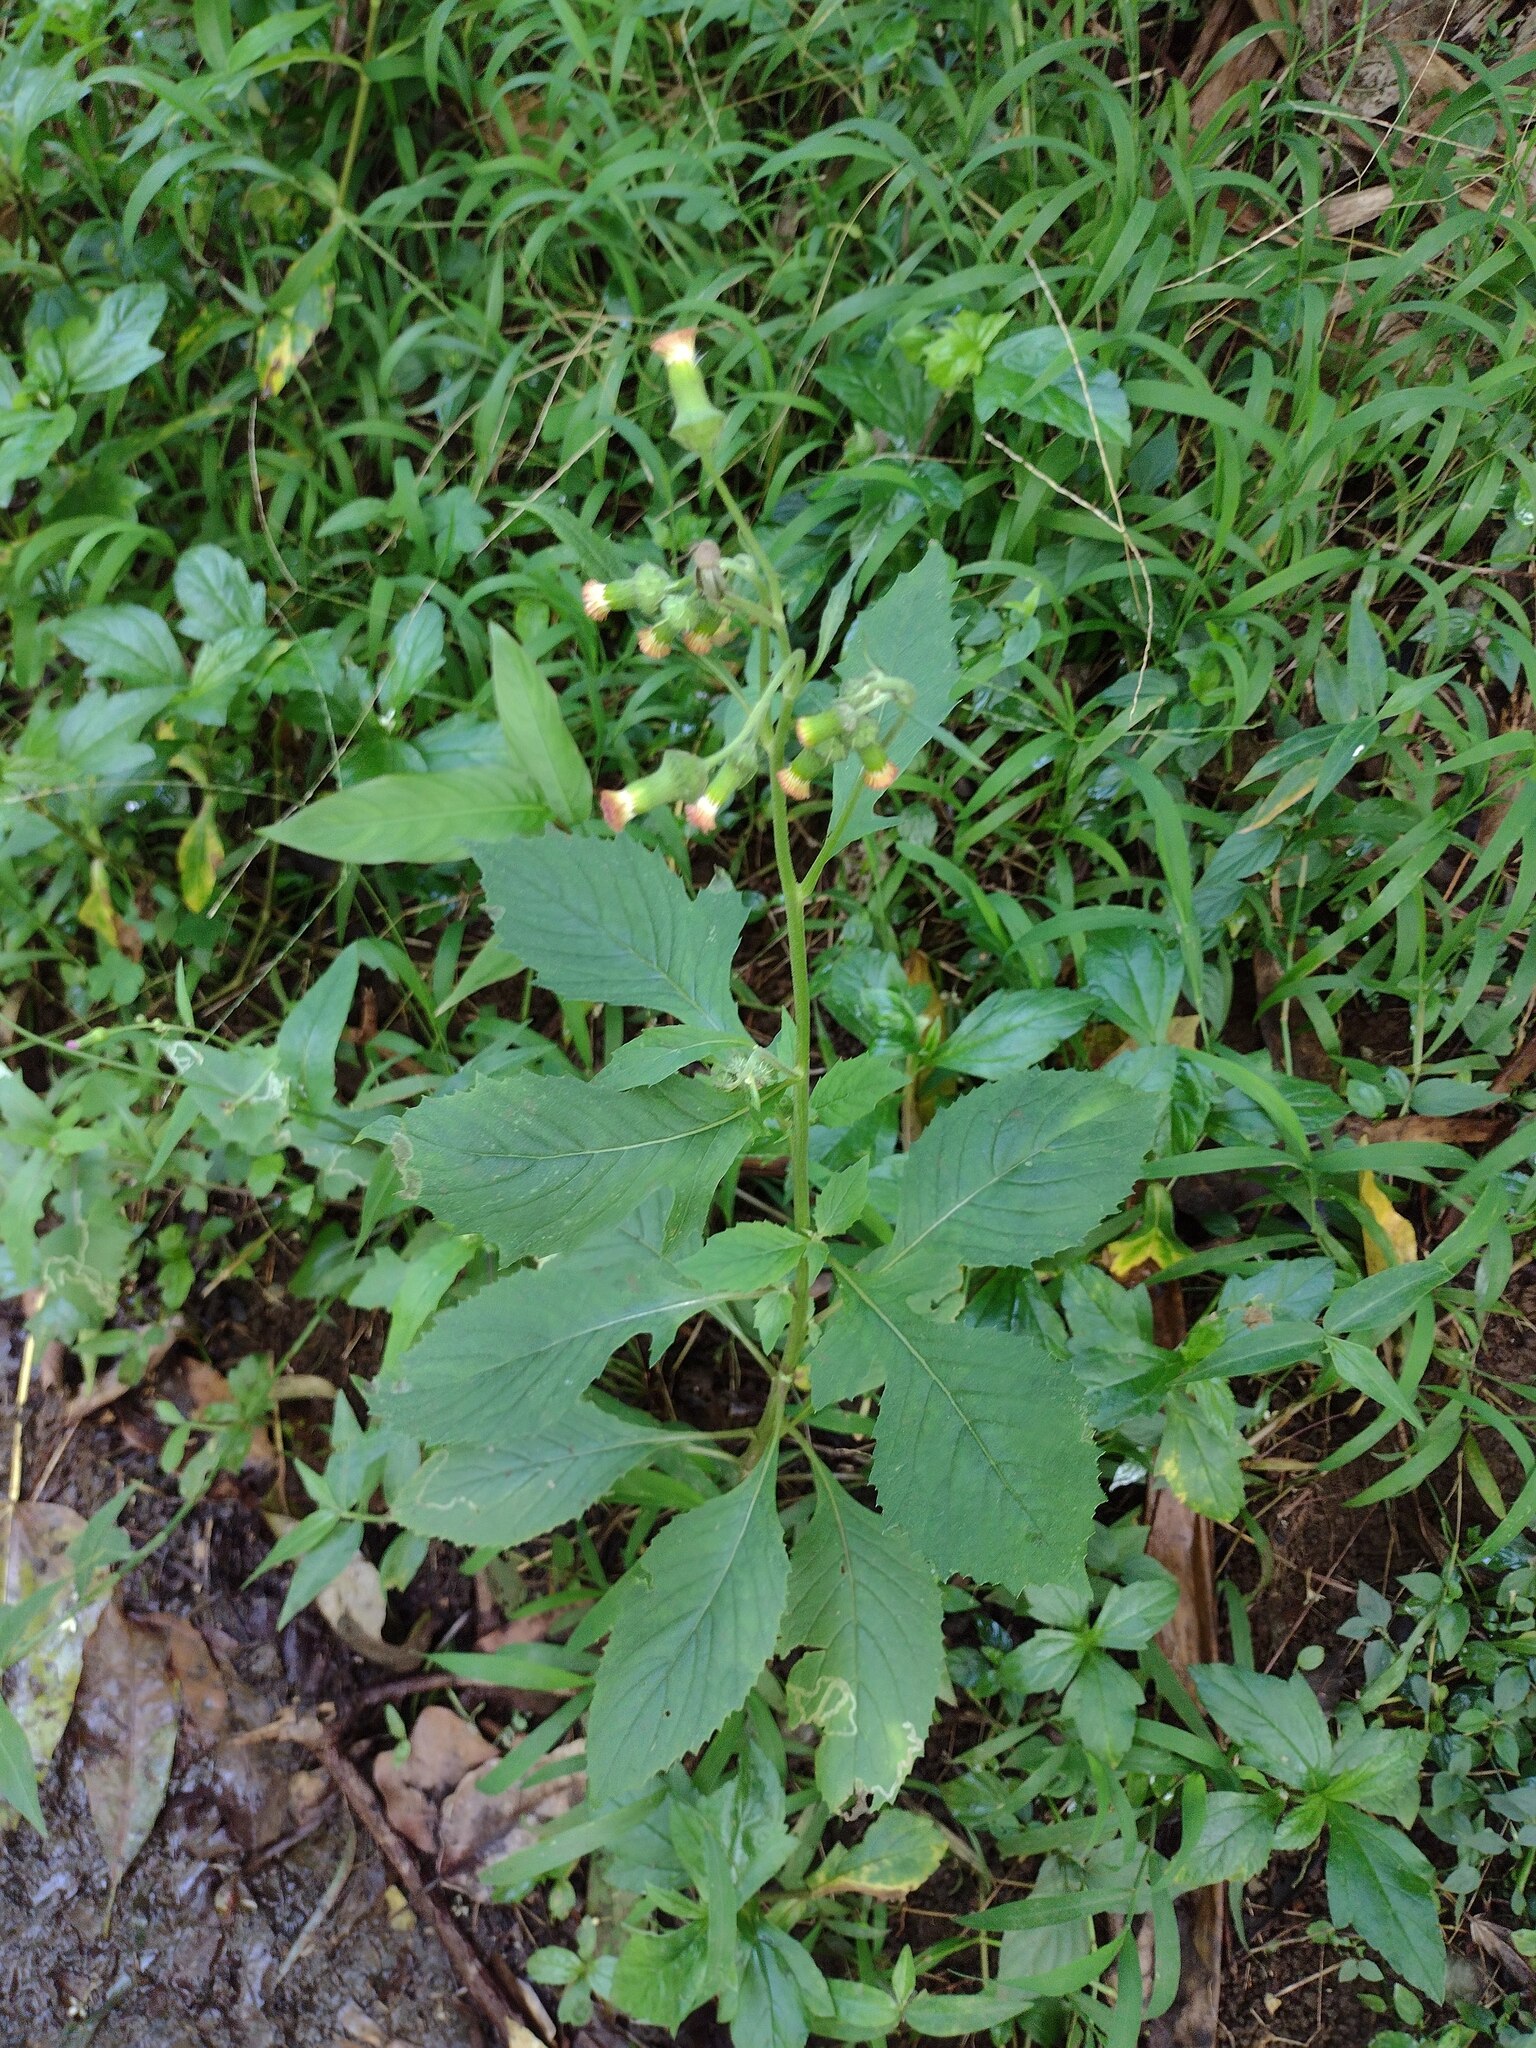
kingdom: Plantae
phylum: Tracheophyta
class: Magnoliopsida
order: Asterales
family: Asteraceae
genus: Crassocephalum
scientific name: Crassocephalum crepidioides
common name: Redflower ragleaf
